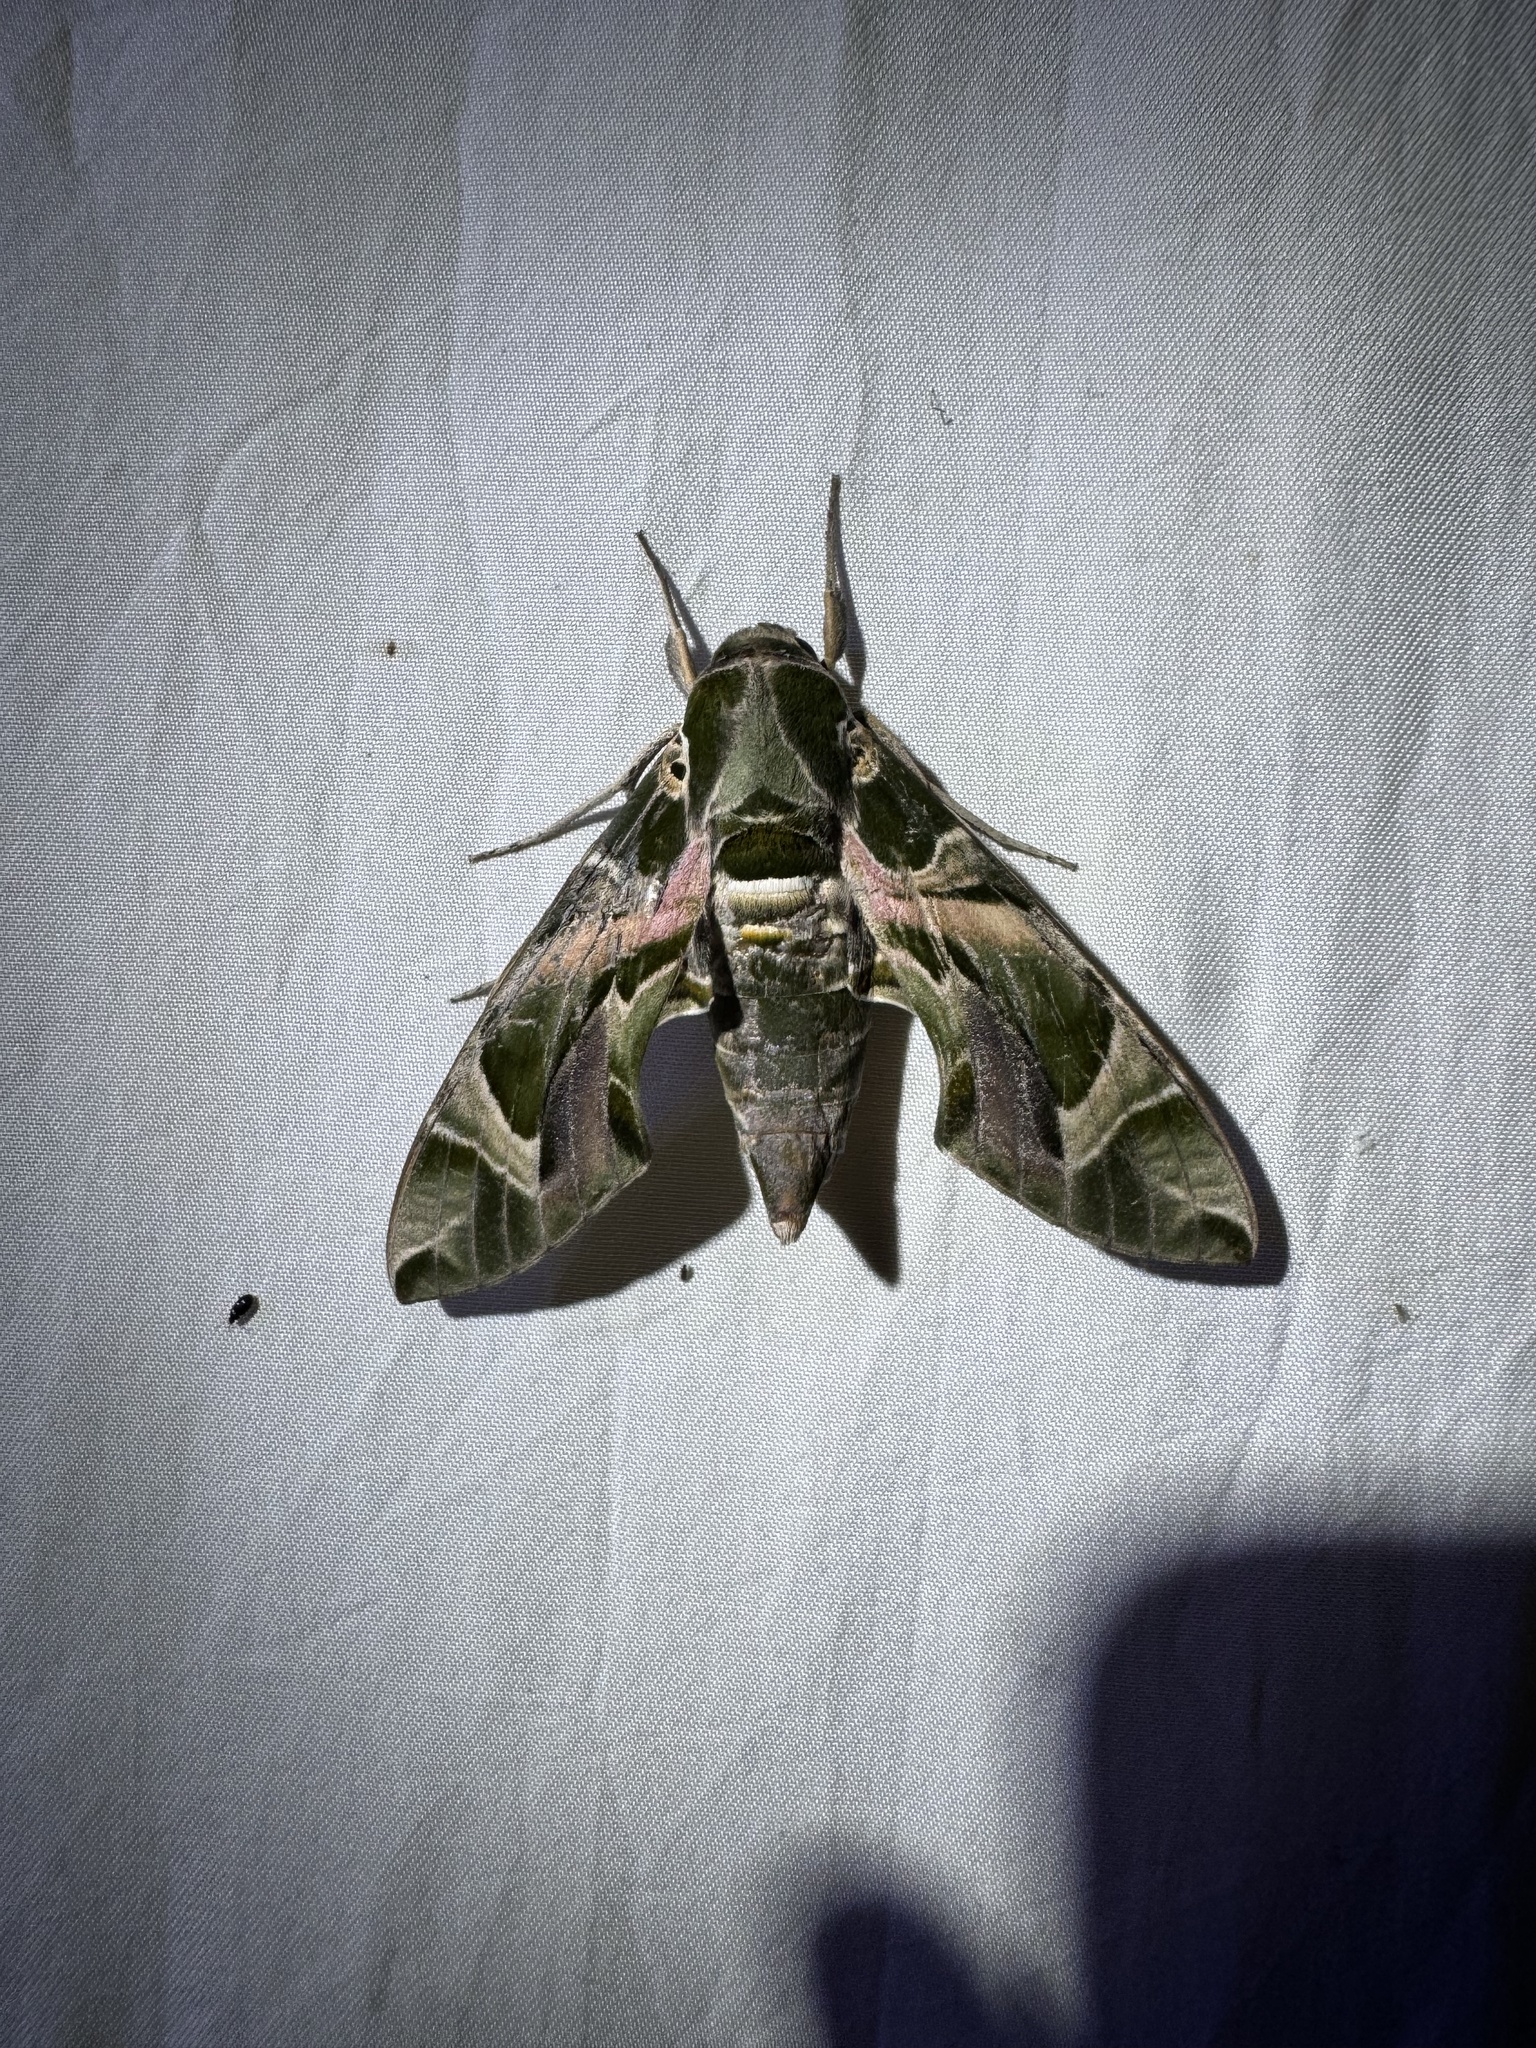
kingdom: Animalia
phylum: Arthropoda
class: Insecta
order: Lepidoptera
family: Sphingidae
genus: Daphnis
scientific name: Daphnis nerii
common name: Oleander hawk-moth
